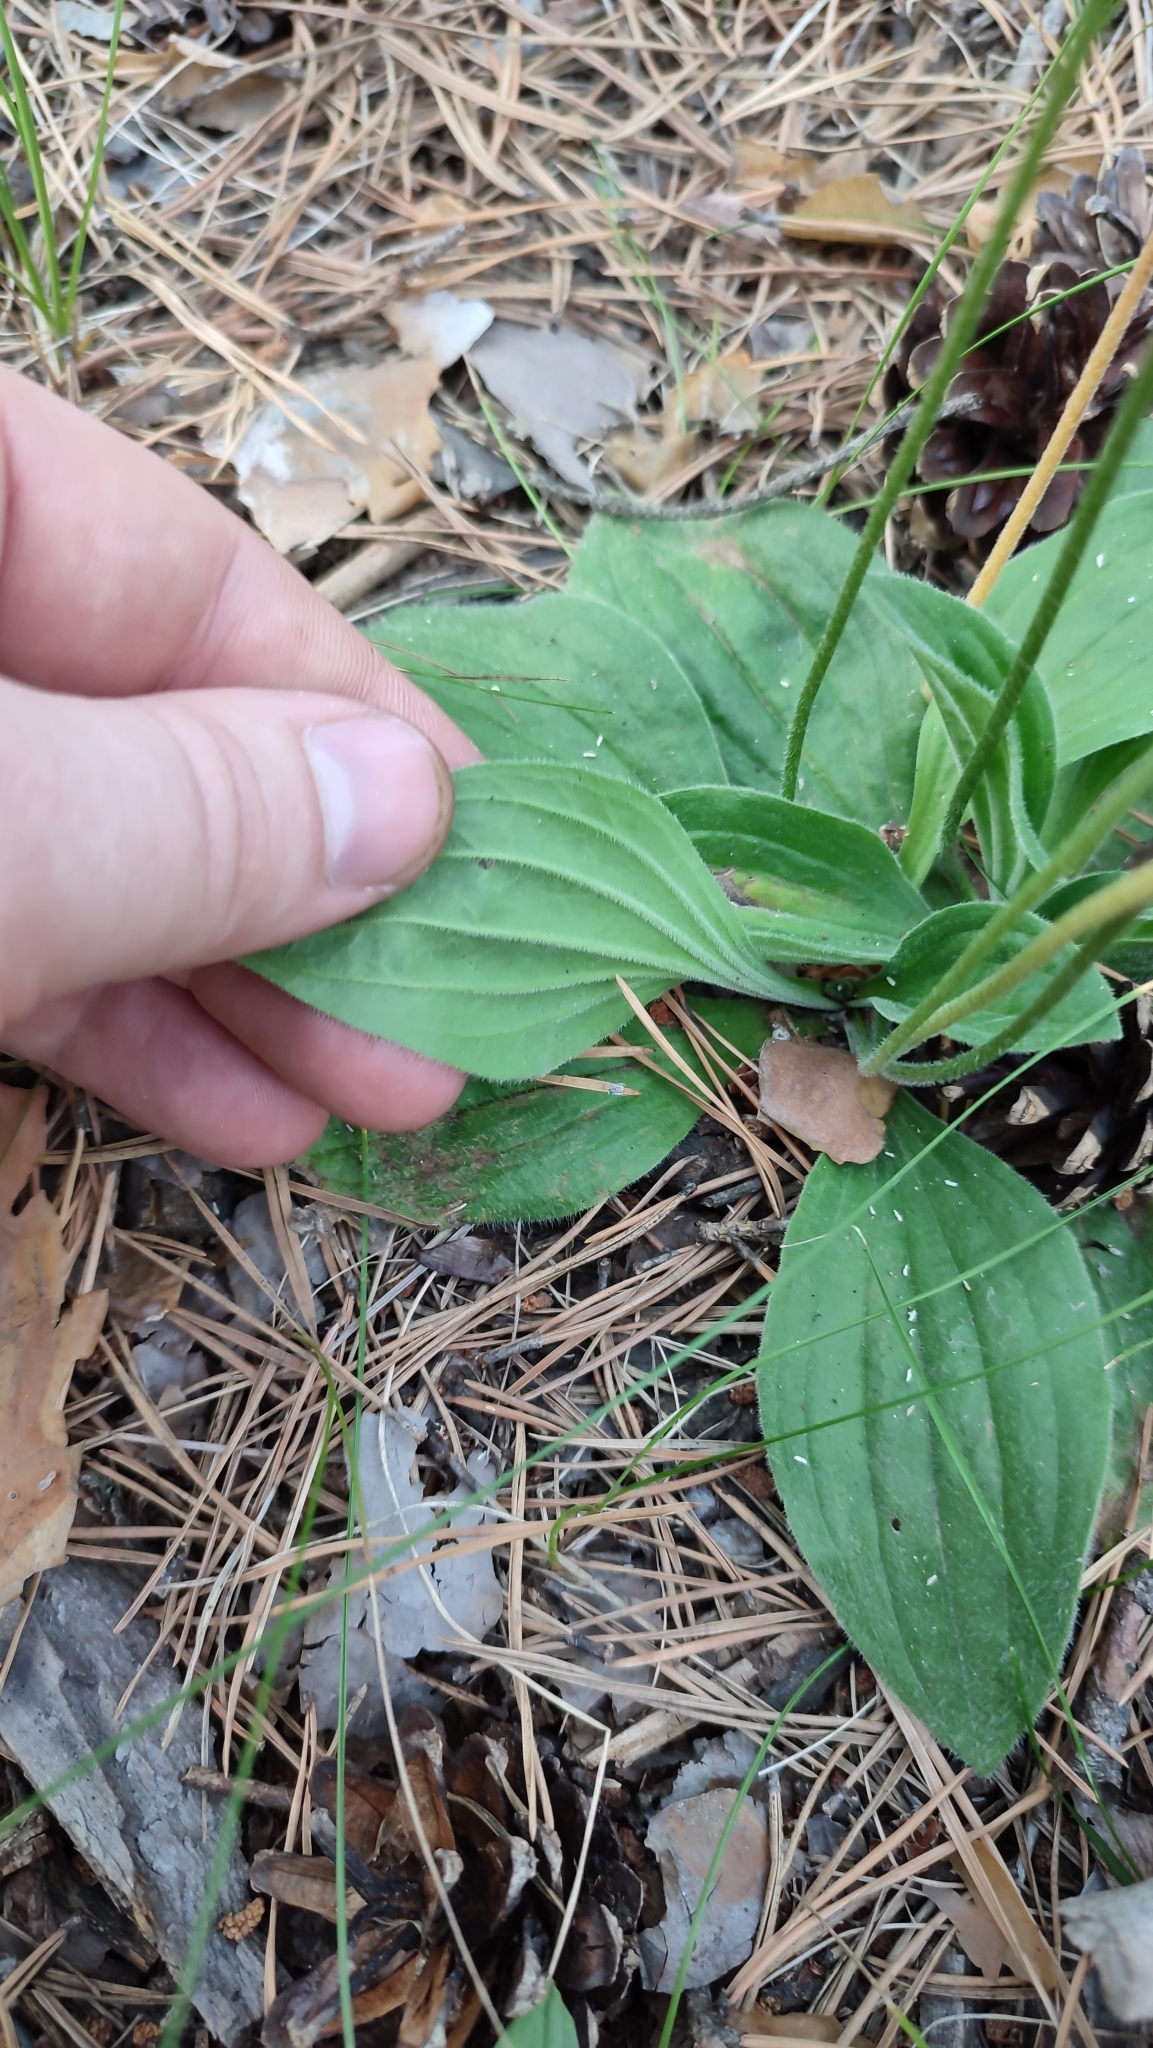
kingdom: Plantae
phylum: Tracheophyta
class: Magnoliopsida
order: Lamiales
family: Plantaginaceae
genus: Plantago
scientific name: Plantago media
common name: Hoary plantain
